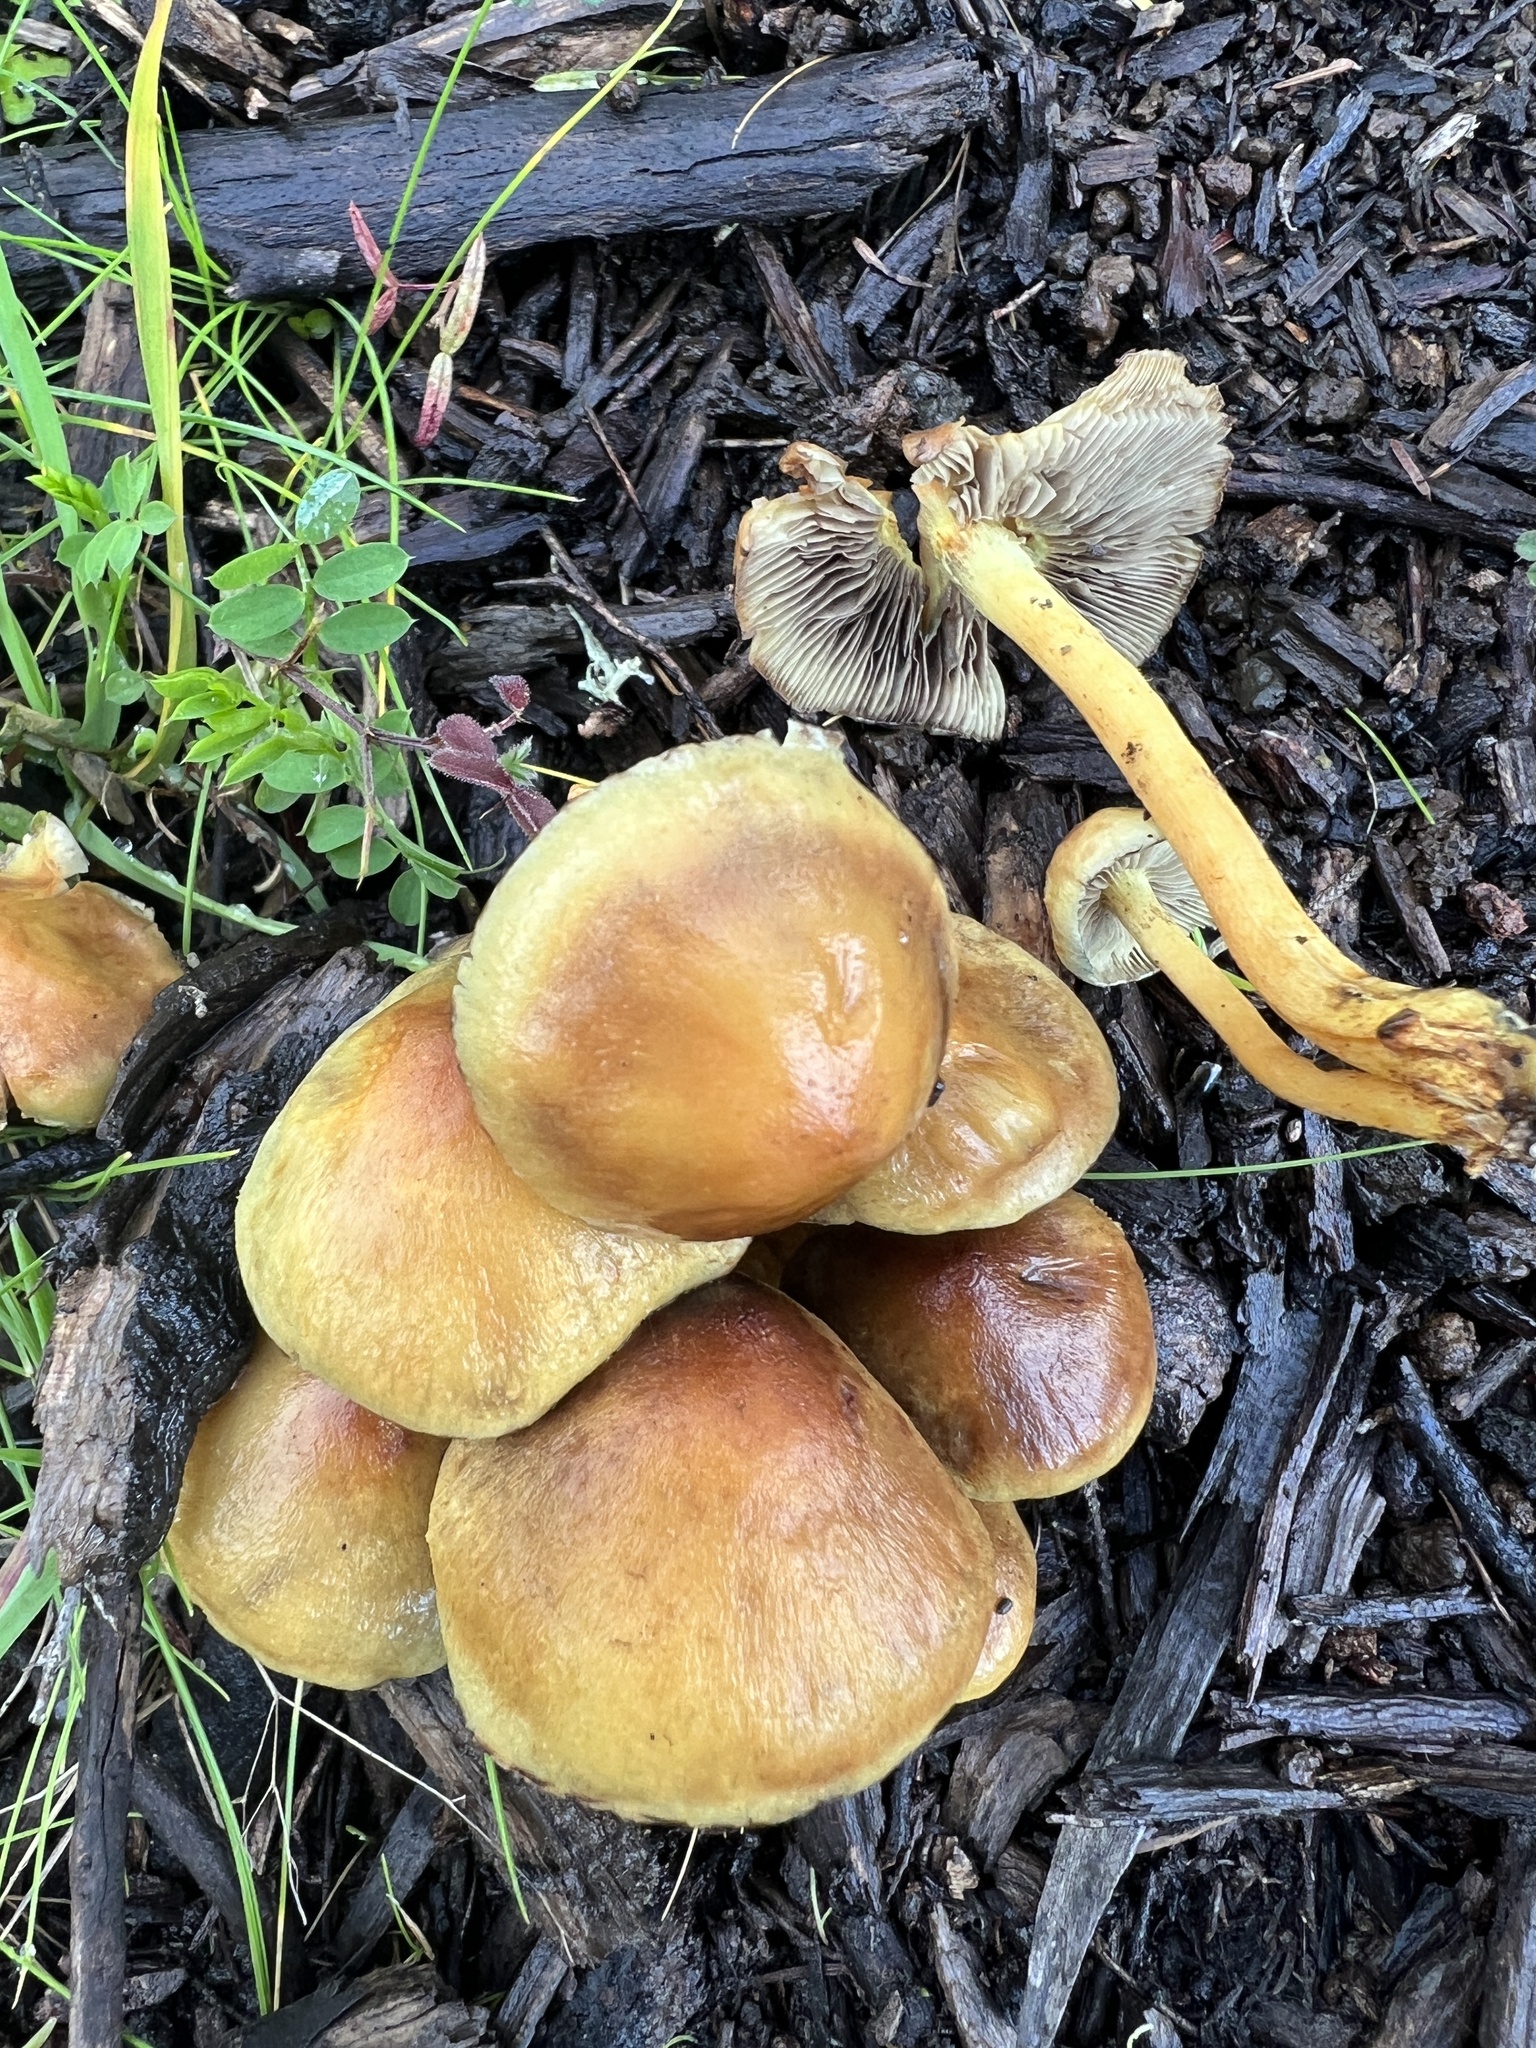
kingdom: Fungi
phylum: Basidiomycota
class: Agaricomycetes
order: Agaricales
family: Strophariaceae
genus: Hypholoma
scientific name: Hypholoma fasciculare
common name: Sulphur tuft
